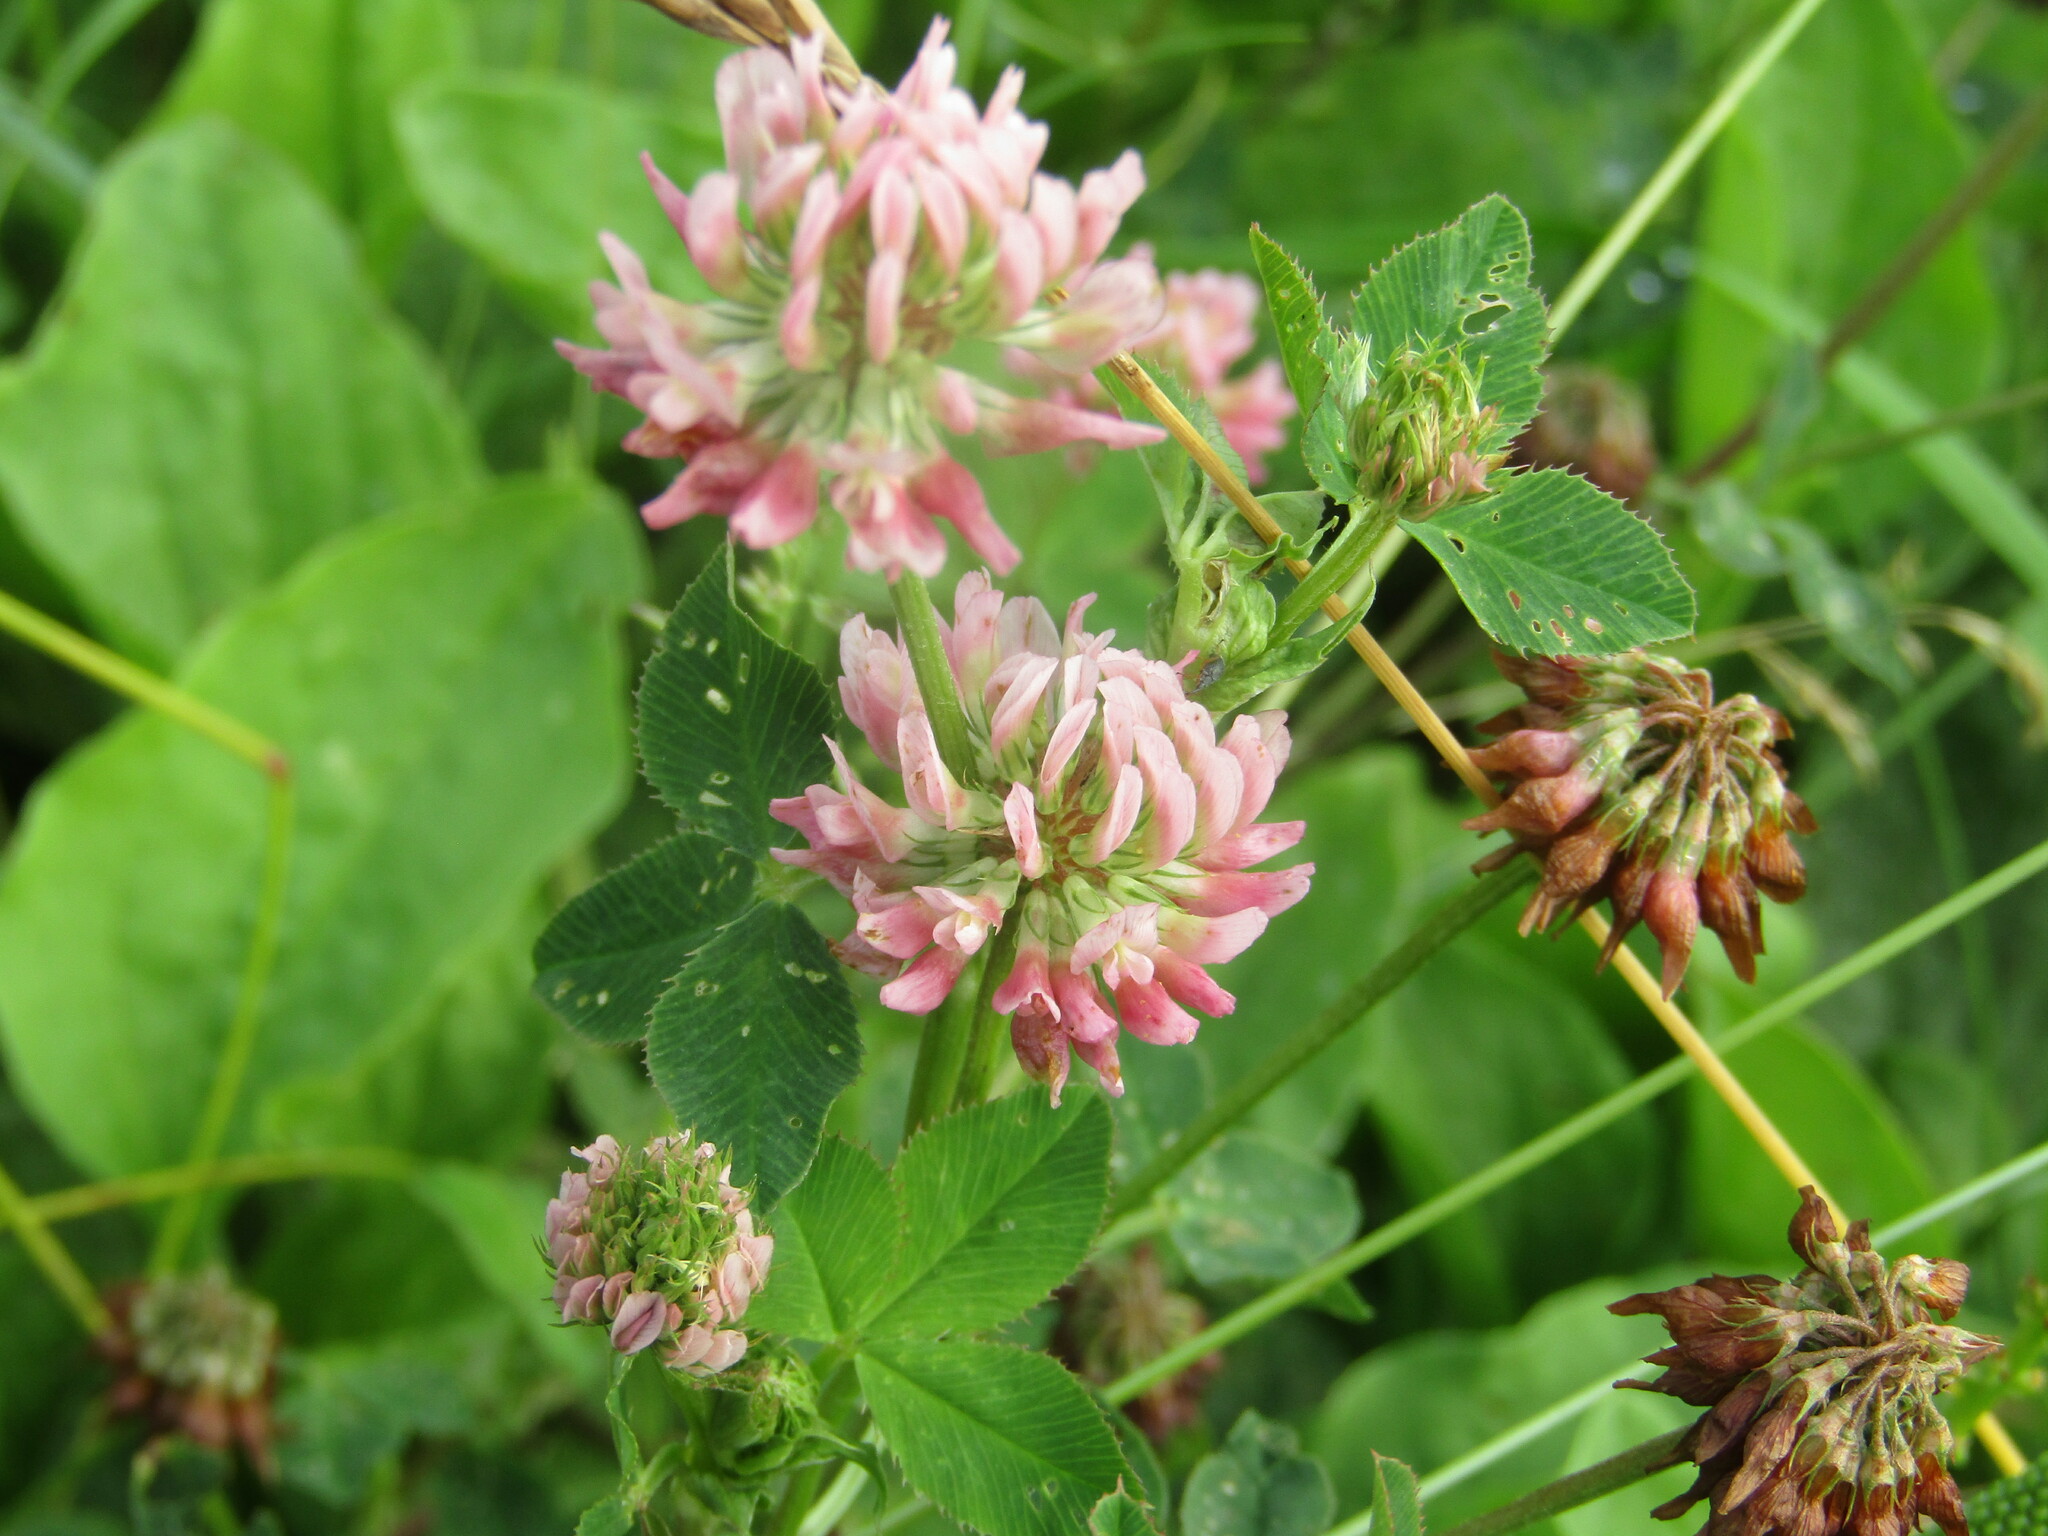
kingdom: Plantae
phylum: Tracheophyta
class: Magnoliopsida
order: Fabales
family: Fabaceae
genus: Trifolium
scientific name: Trifolium hybridum
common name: Alsike clover
